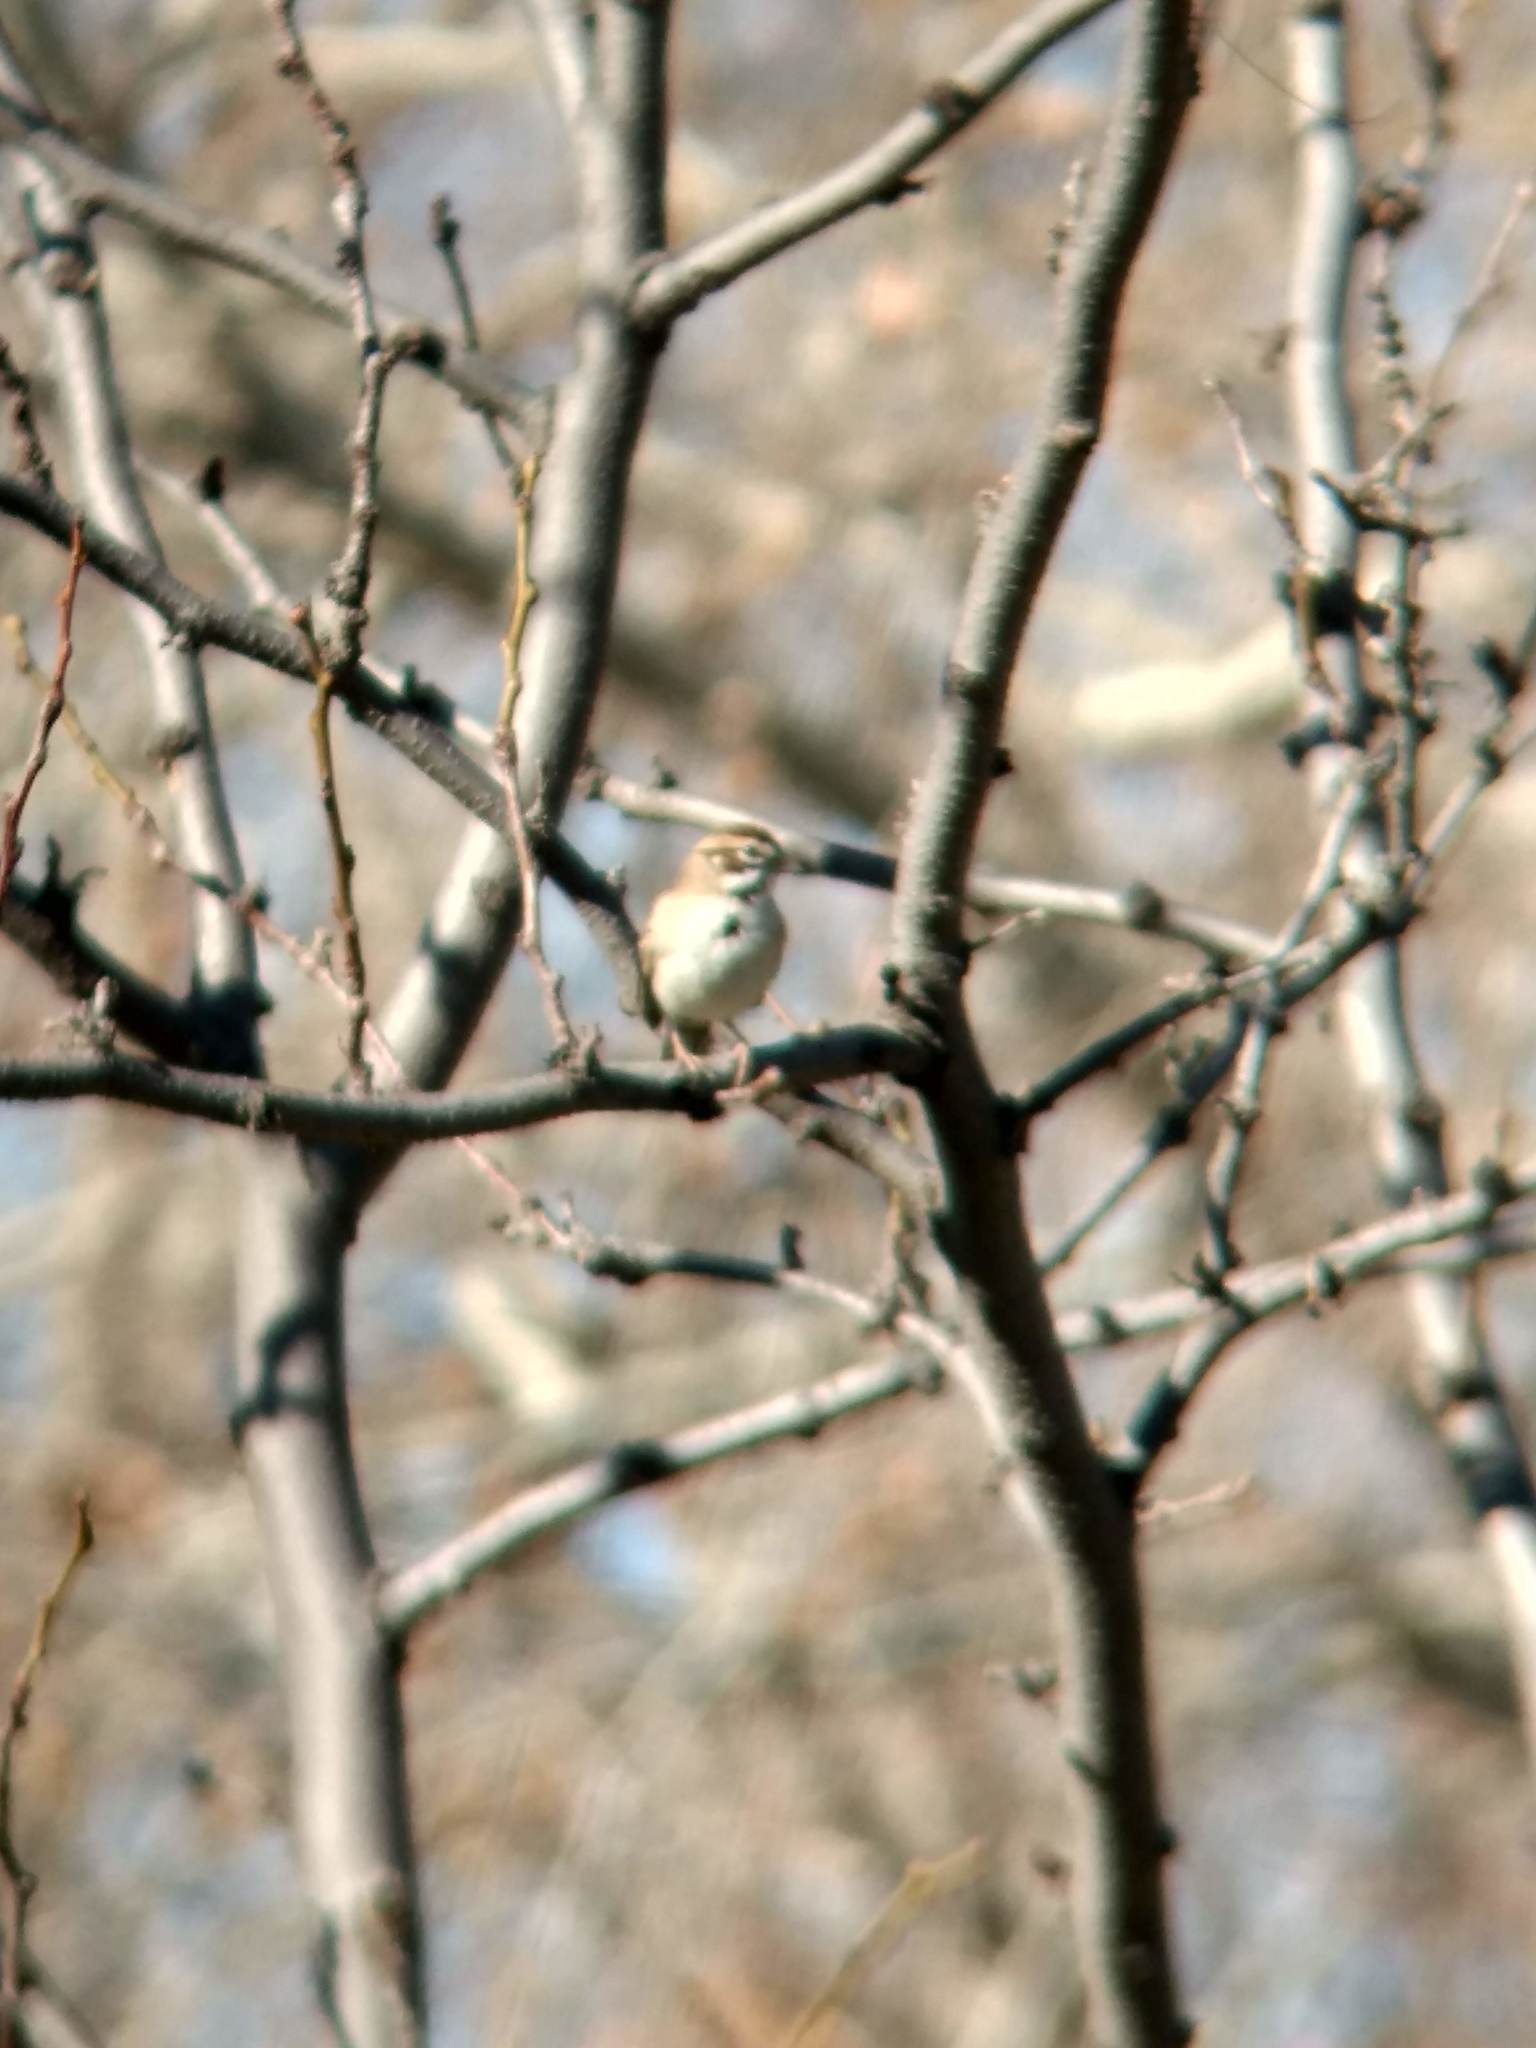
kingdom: Animalia
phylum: Chordata
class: Aves
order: Passeriformes
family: Passerellidae
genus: Chondestes
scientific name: Chondestes grammacus
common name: Lark sparrow
